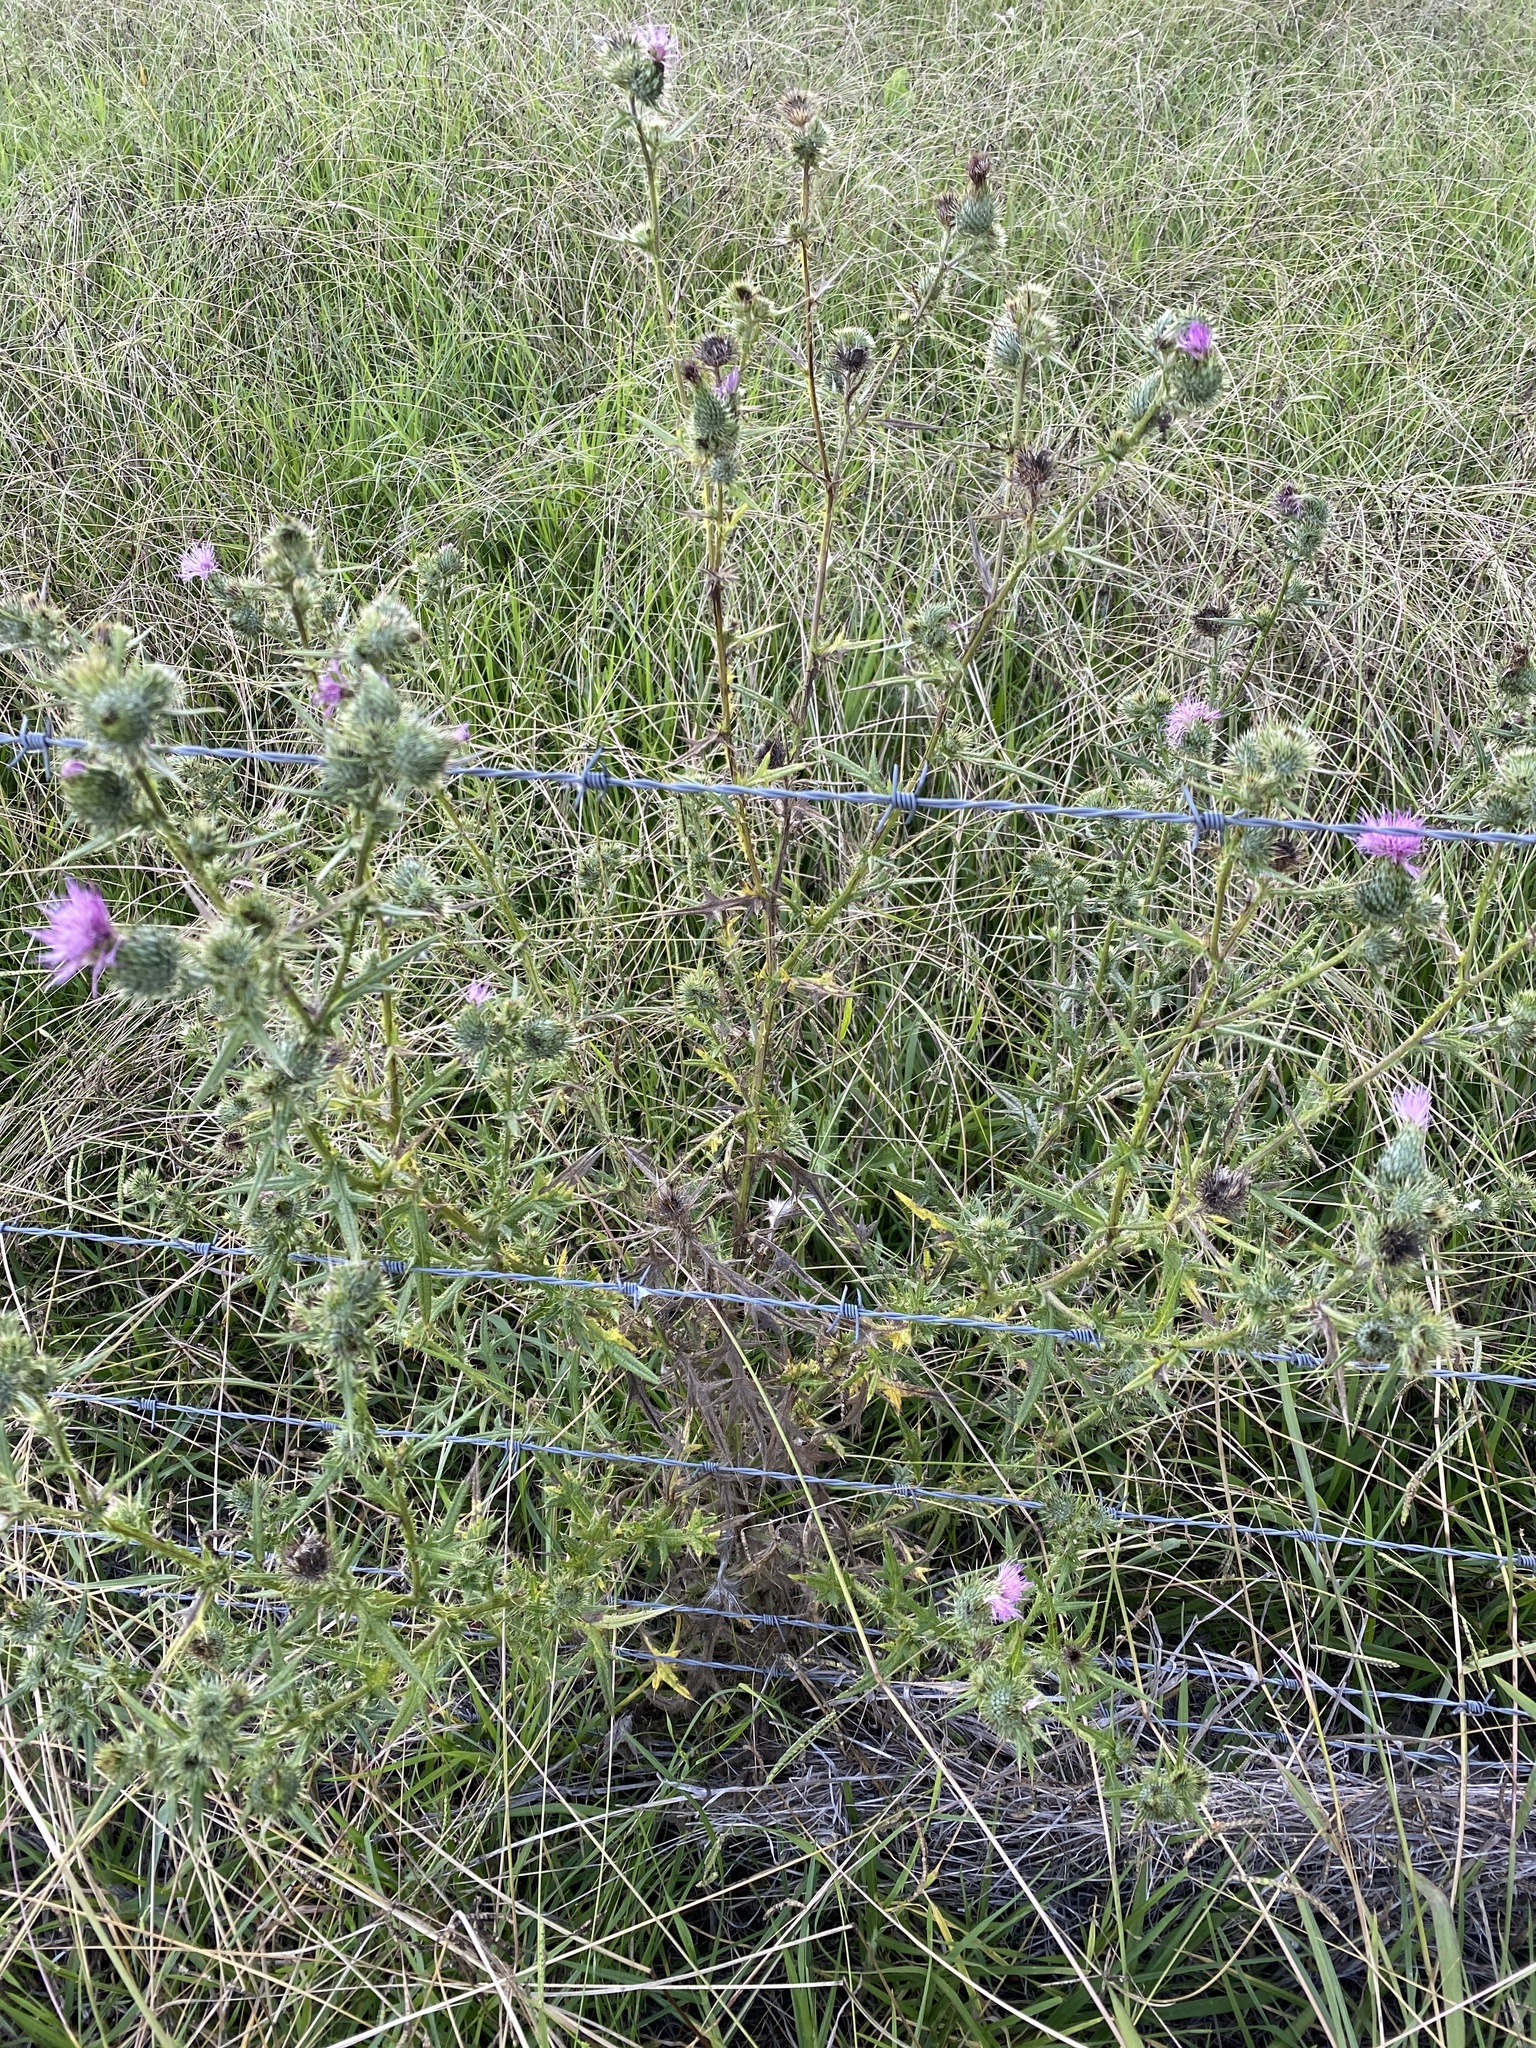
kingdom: Plantae
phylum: Tracheophyta
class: Magnoliopsida
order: Asterales
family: Asteraceae
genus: Cirsium
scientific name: Cirsium vulgare
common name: Bull thistle
